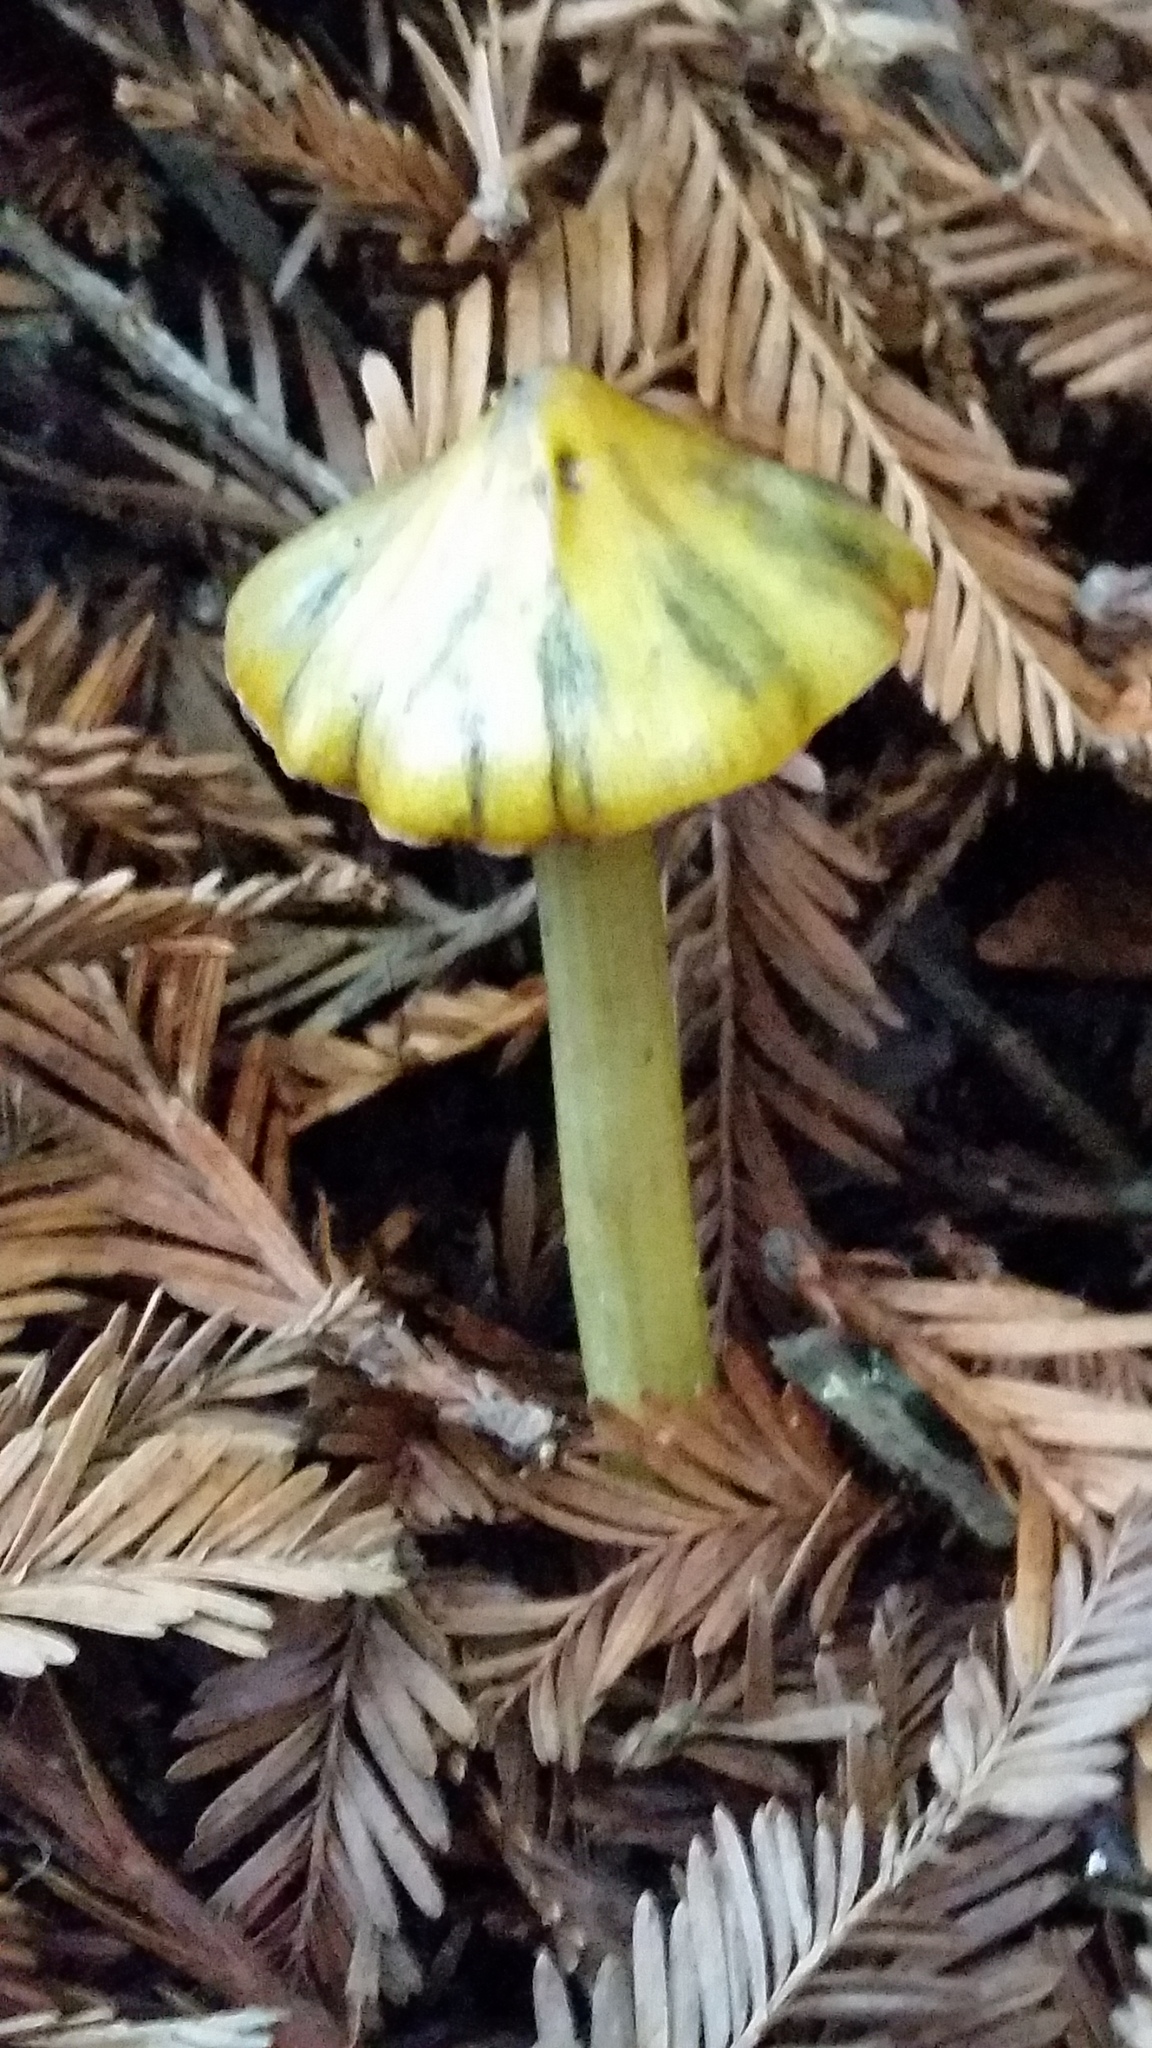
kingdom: Fungi
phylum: Basidiomycota
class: Agaricomycetes
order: Agaricales
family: Hygrophoraceae
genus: Hygrocybe
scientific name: Hygrocybe singeri
